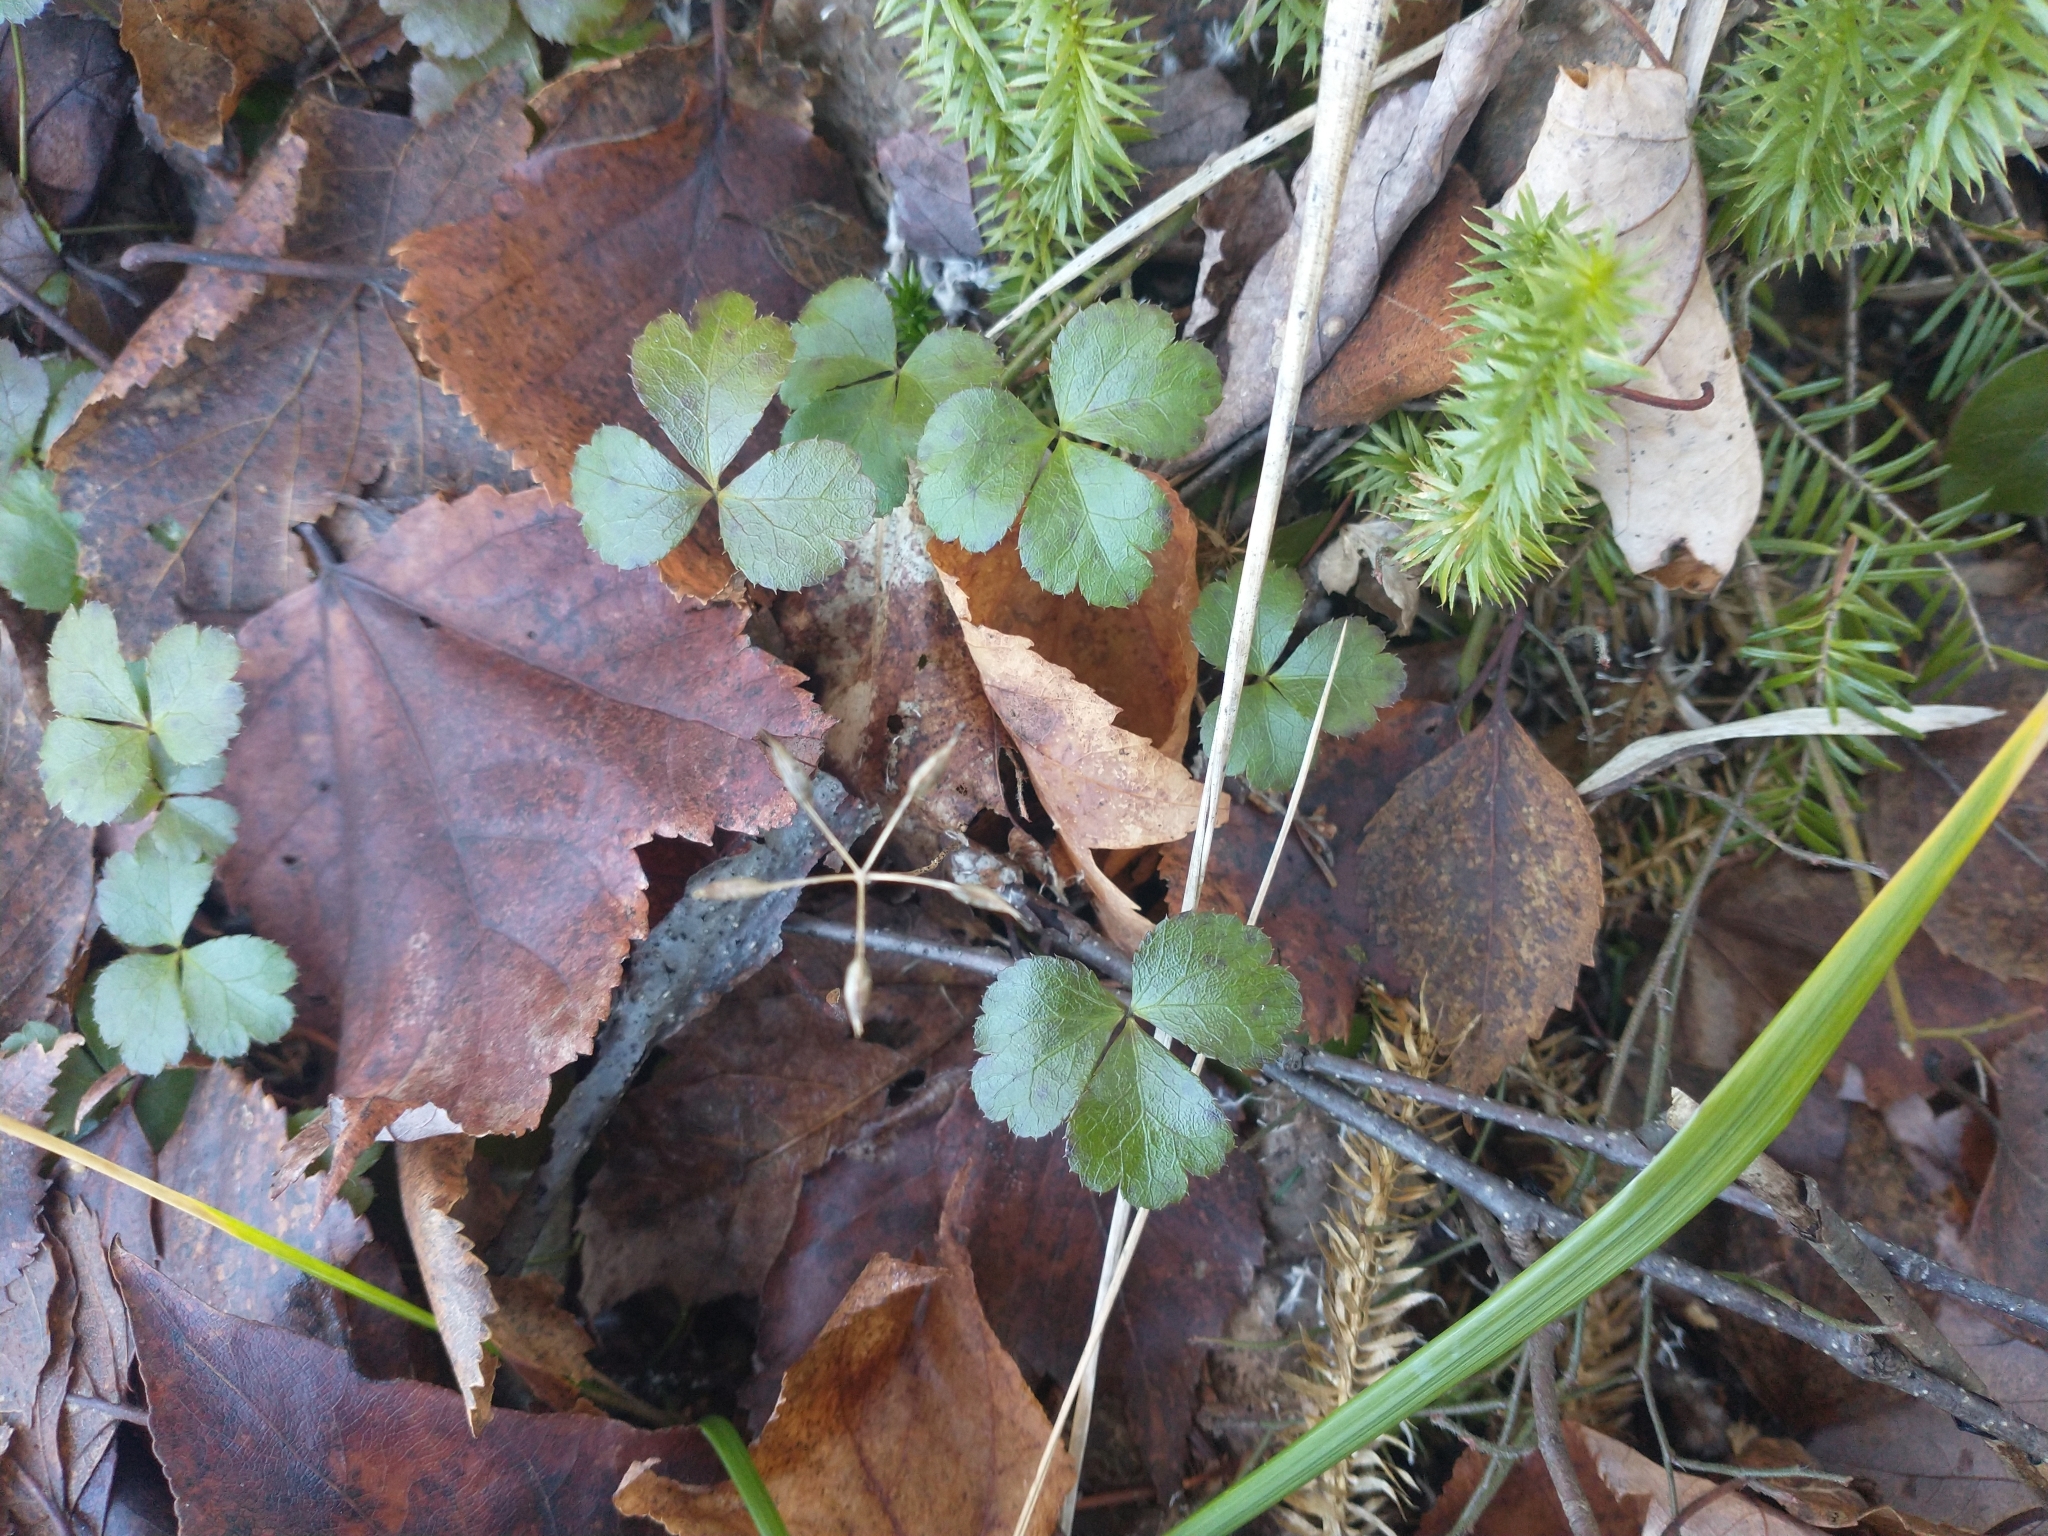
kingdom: Plantae
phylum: Tracheophyta
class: Magnoliopsida
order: Ranunculales
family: Ranunculaceae
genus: Coptis
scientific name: Coptis trifolia
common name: Canker-root
